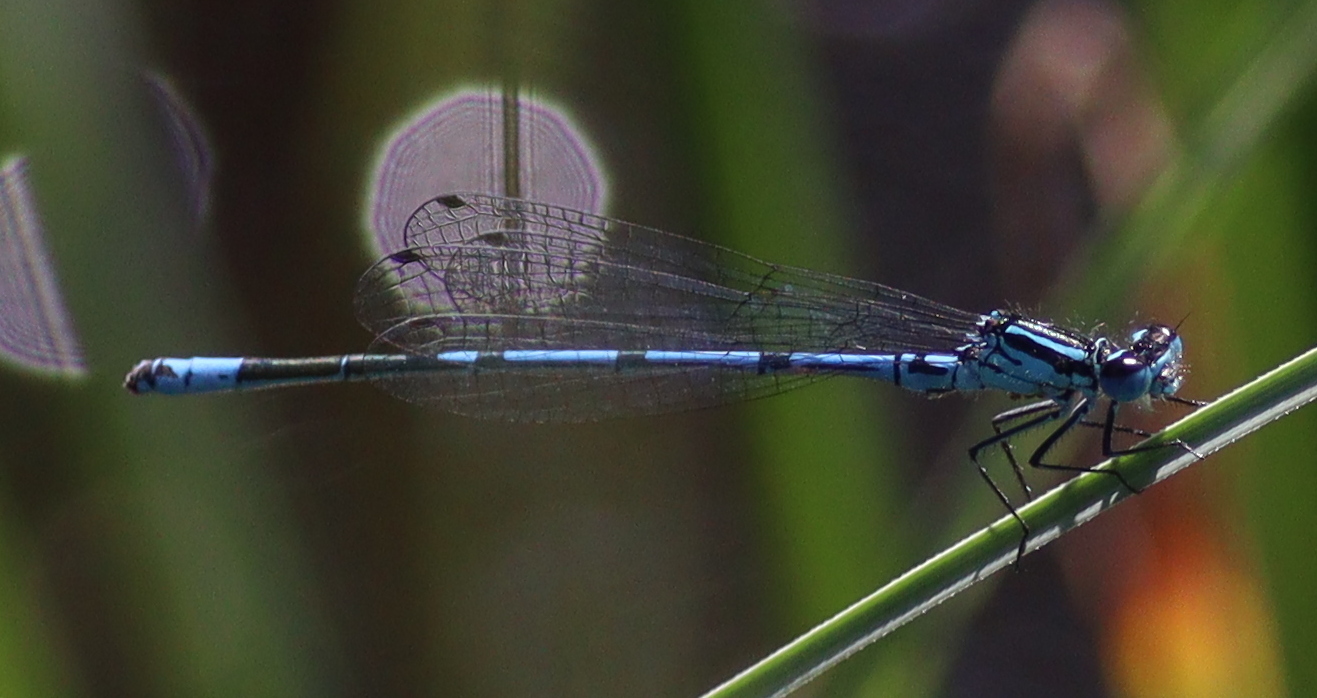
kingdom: Animalia
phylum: Arthropoda
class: Insecta
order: Odonata
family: Coenagrionidae
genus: Coenagrion
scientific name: Coenagrion puella
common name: Azure damselfly
